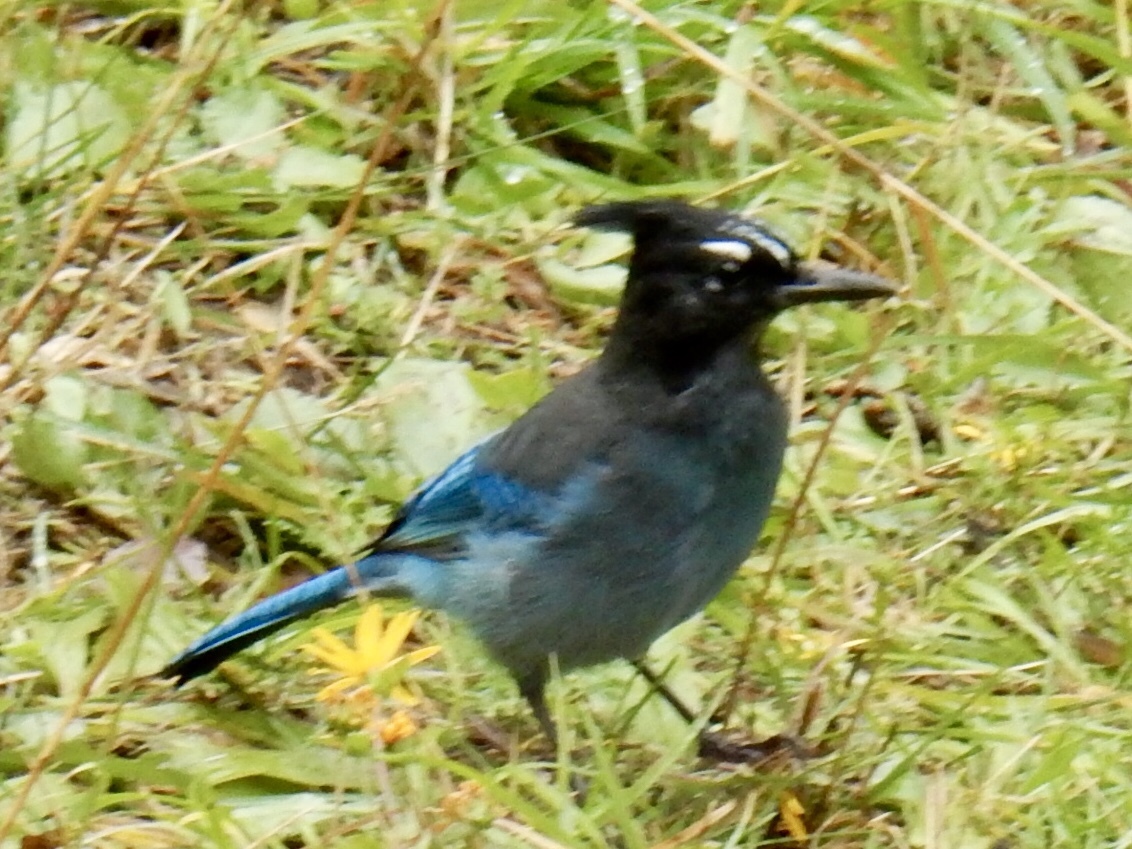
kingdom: Animalia
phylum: Chordata
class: Aves
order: Passeriformes
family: Corvidae
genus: Cyanocitta
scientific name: Cyanocitta stelleri
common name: Steller's jay
